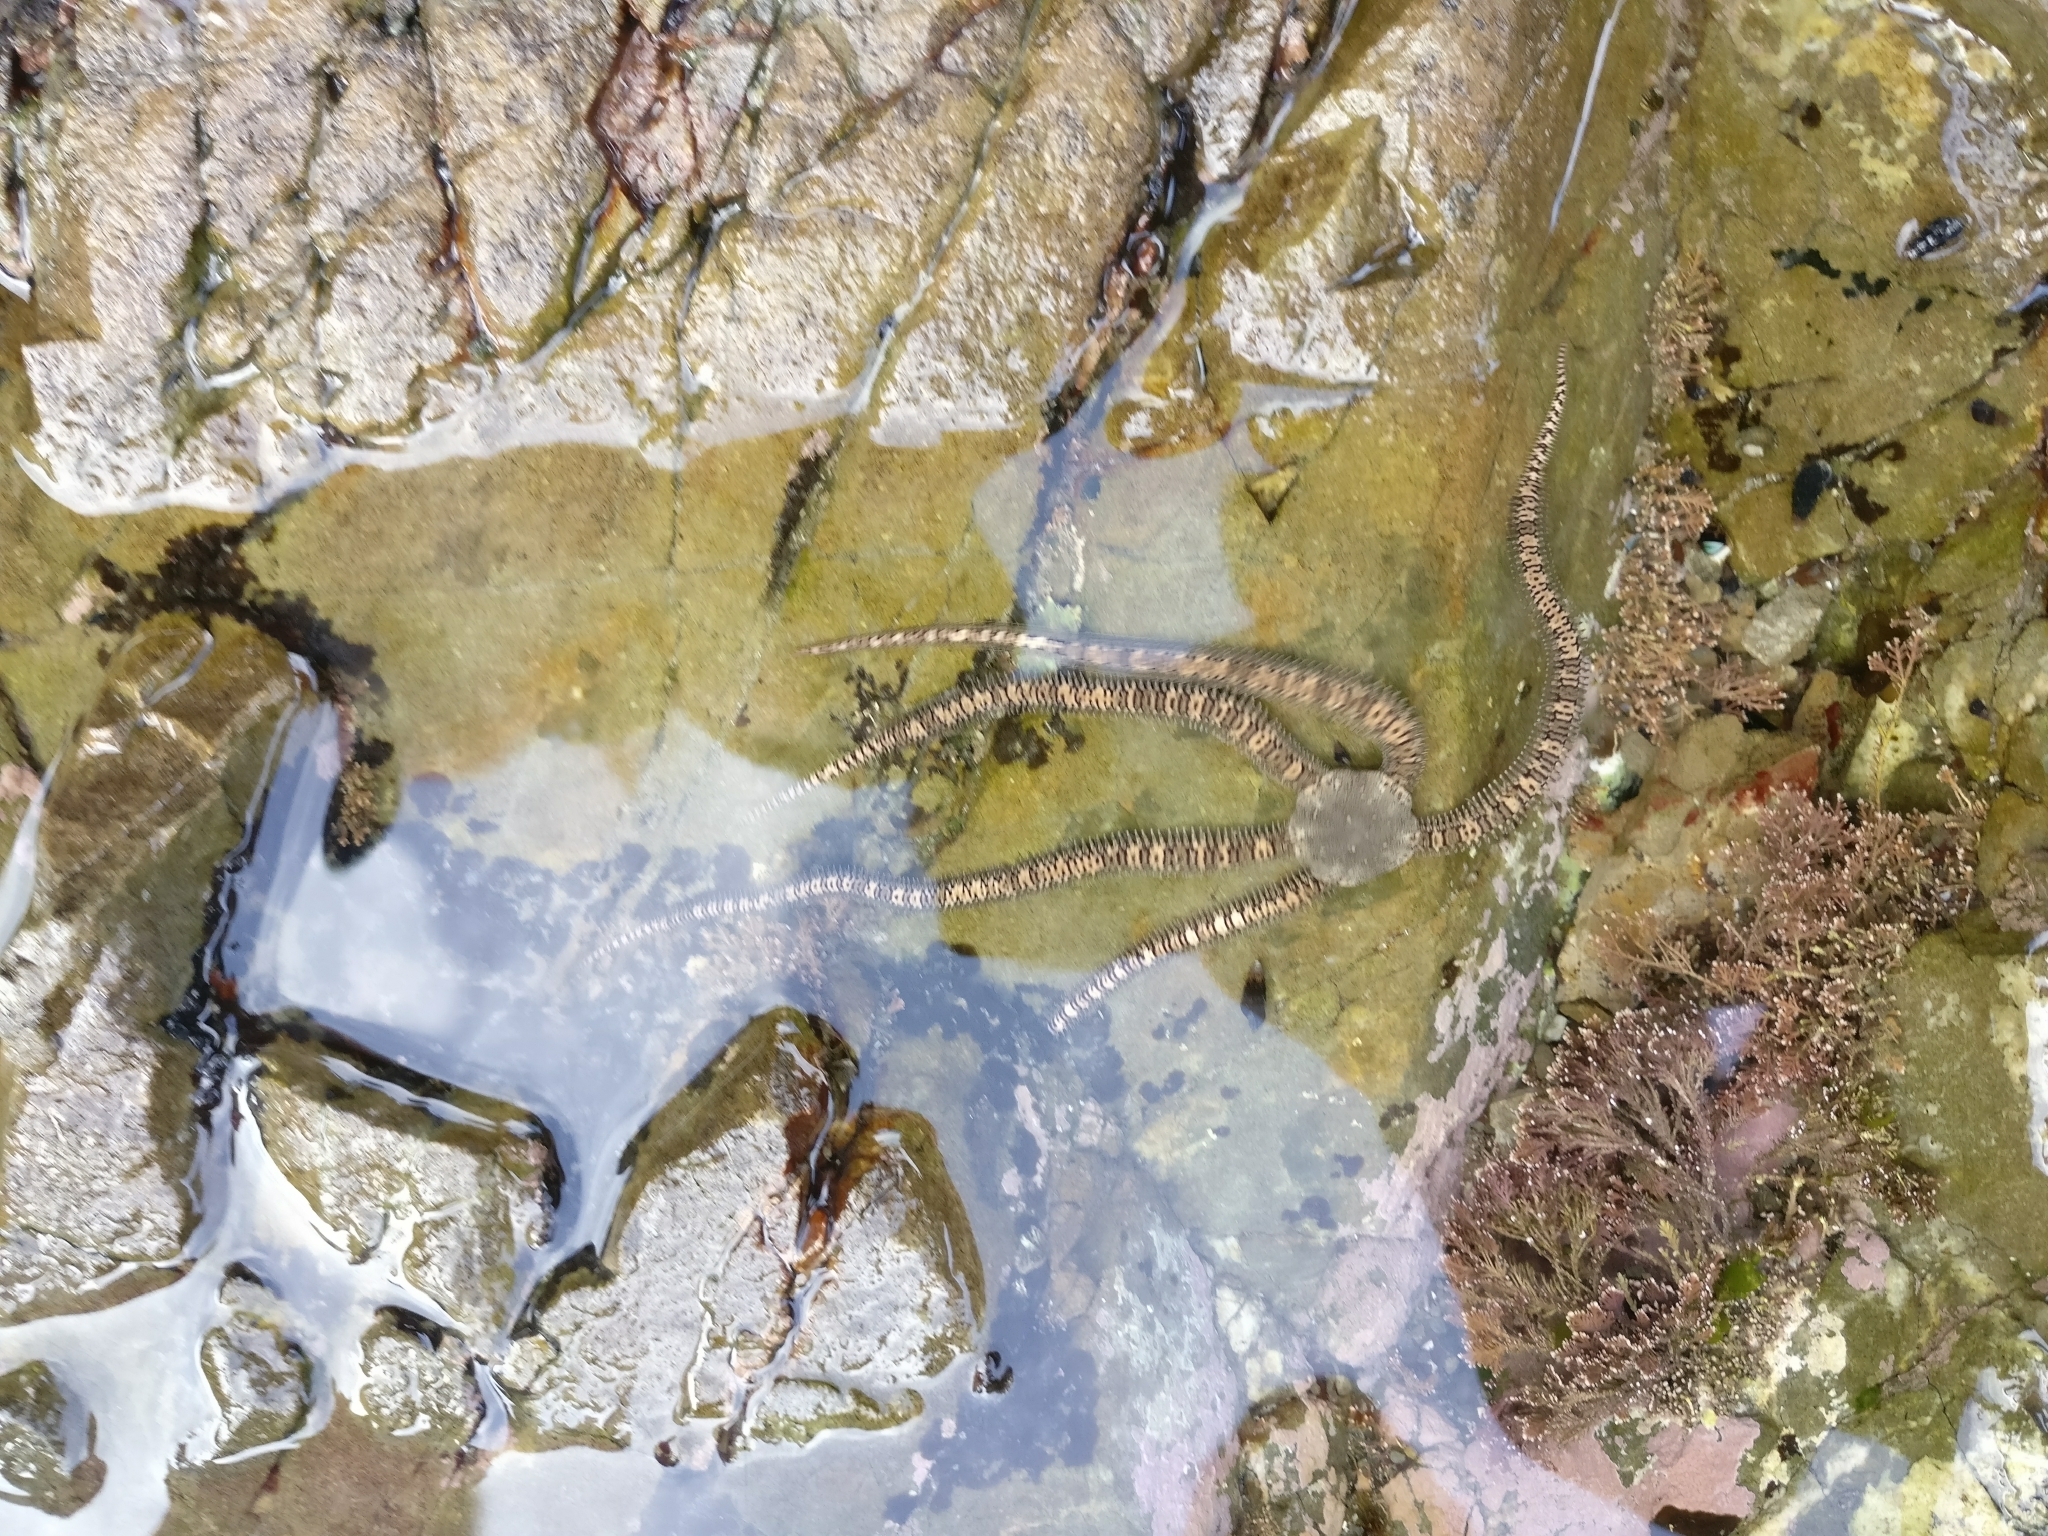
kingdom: Animalia
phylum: Echinodermata
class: Ophiuroidea
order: Amphilepidida
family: Ophionereididae
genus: Ophionereis
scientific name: Ophionereis fasciata
